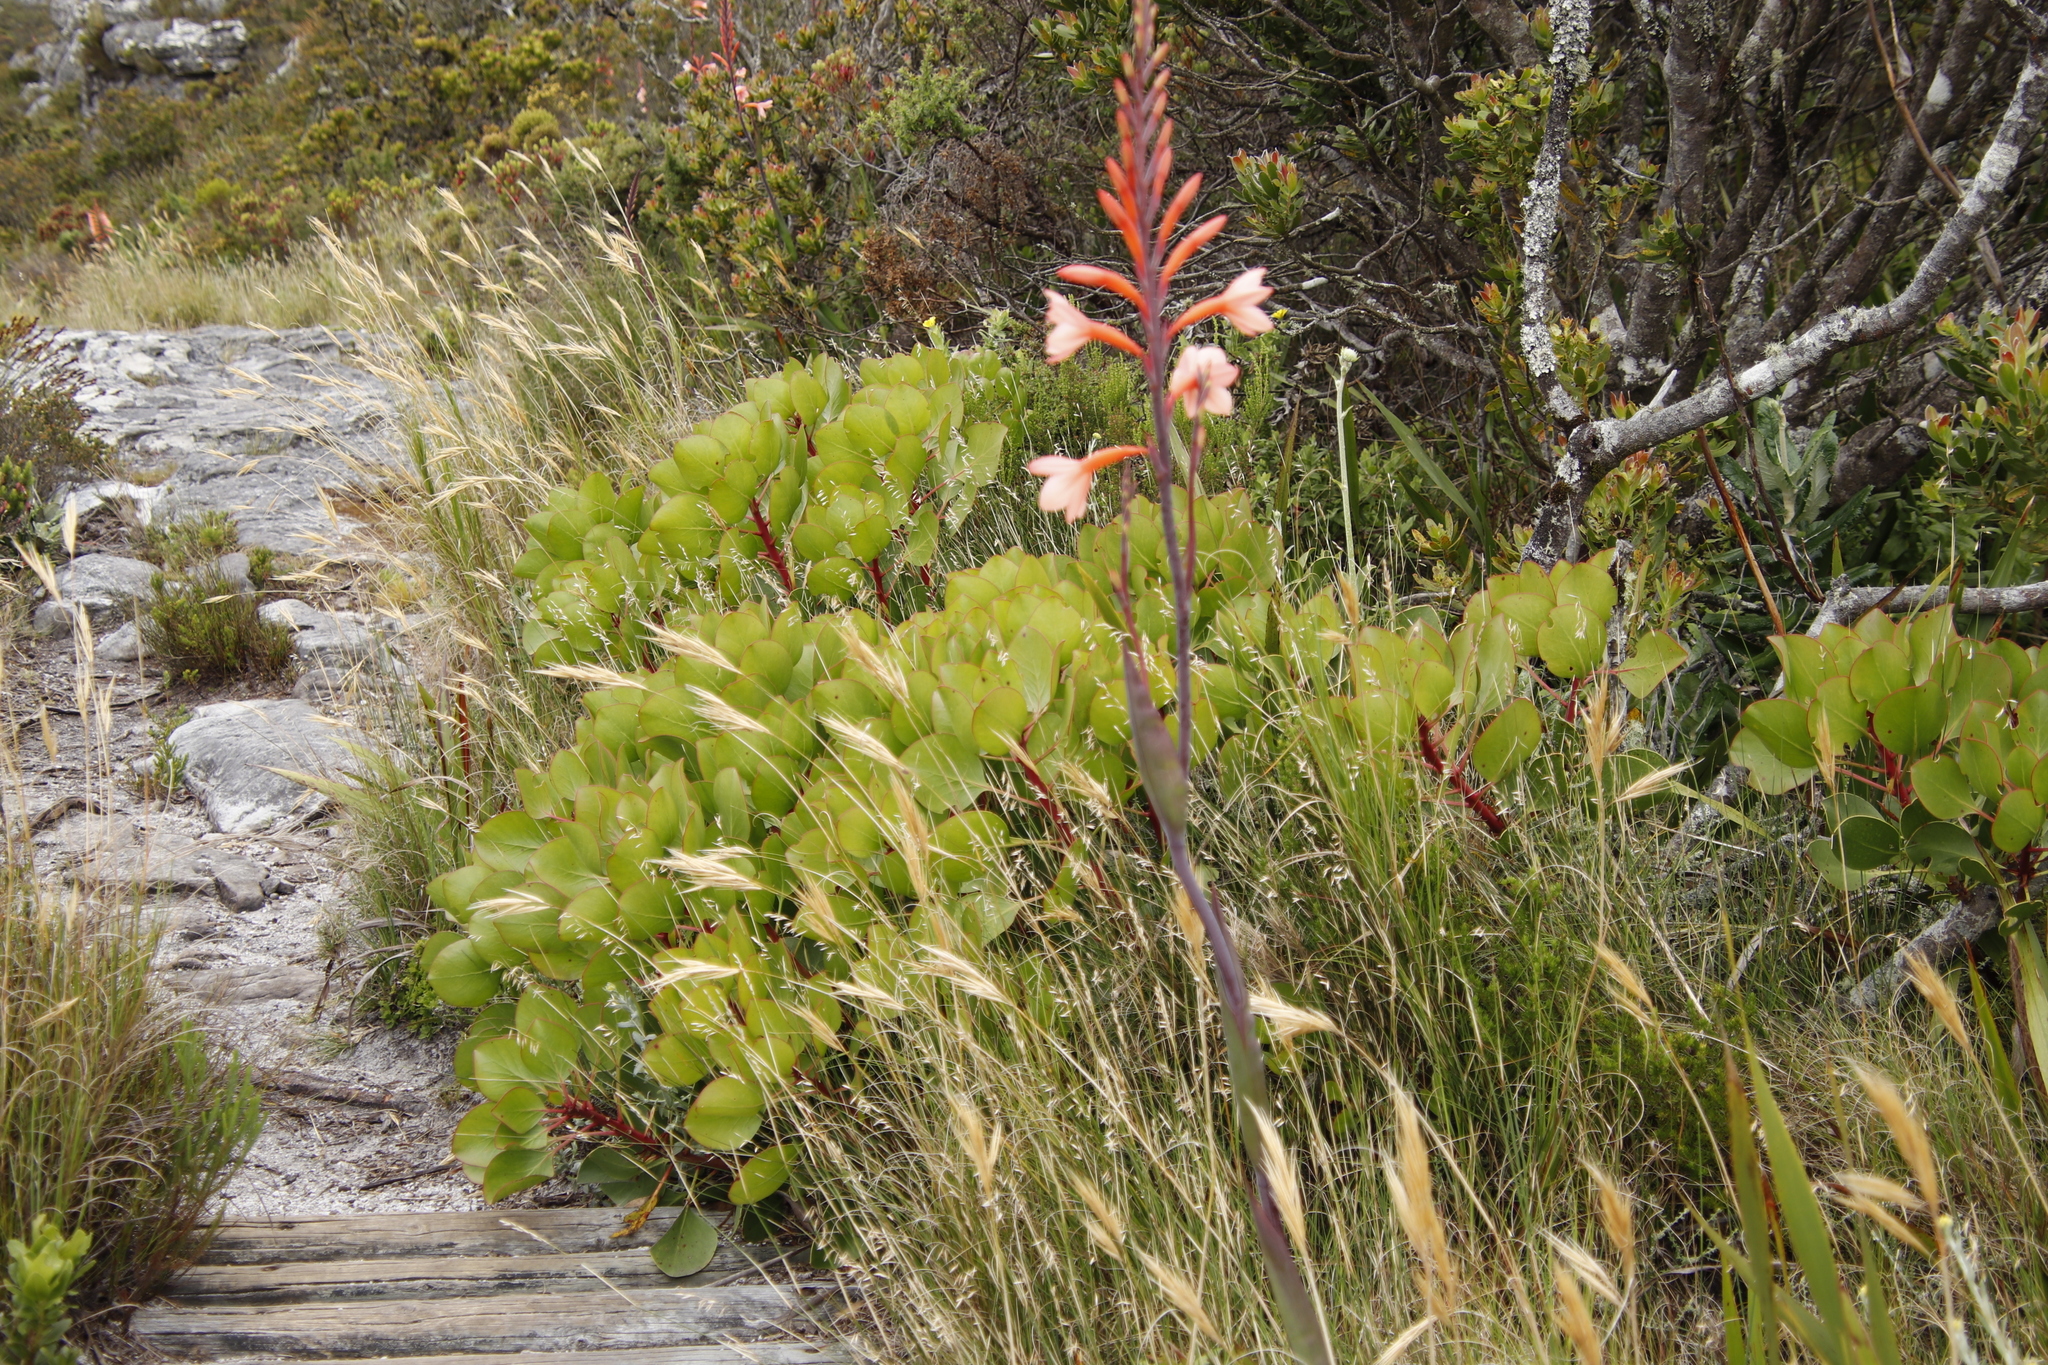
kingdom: Plantae
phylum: Tracheophyta
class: Magnoliopsida
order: Proteales
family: Proteaceae
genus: Protea
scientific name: Protea cynaroides
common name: King protea
